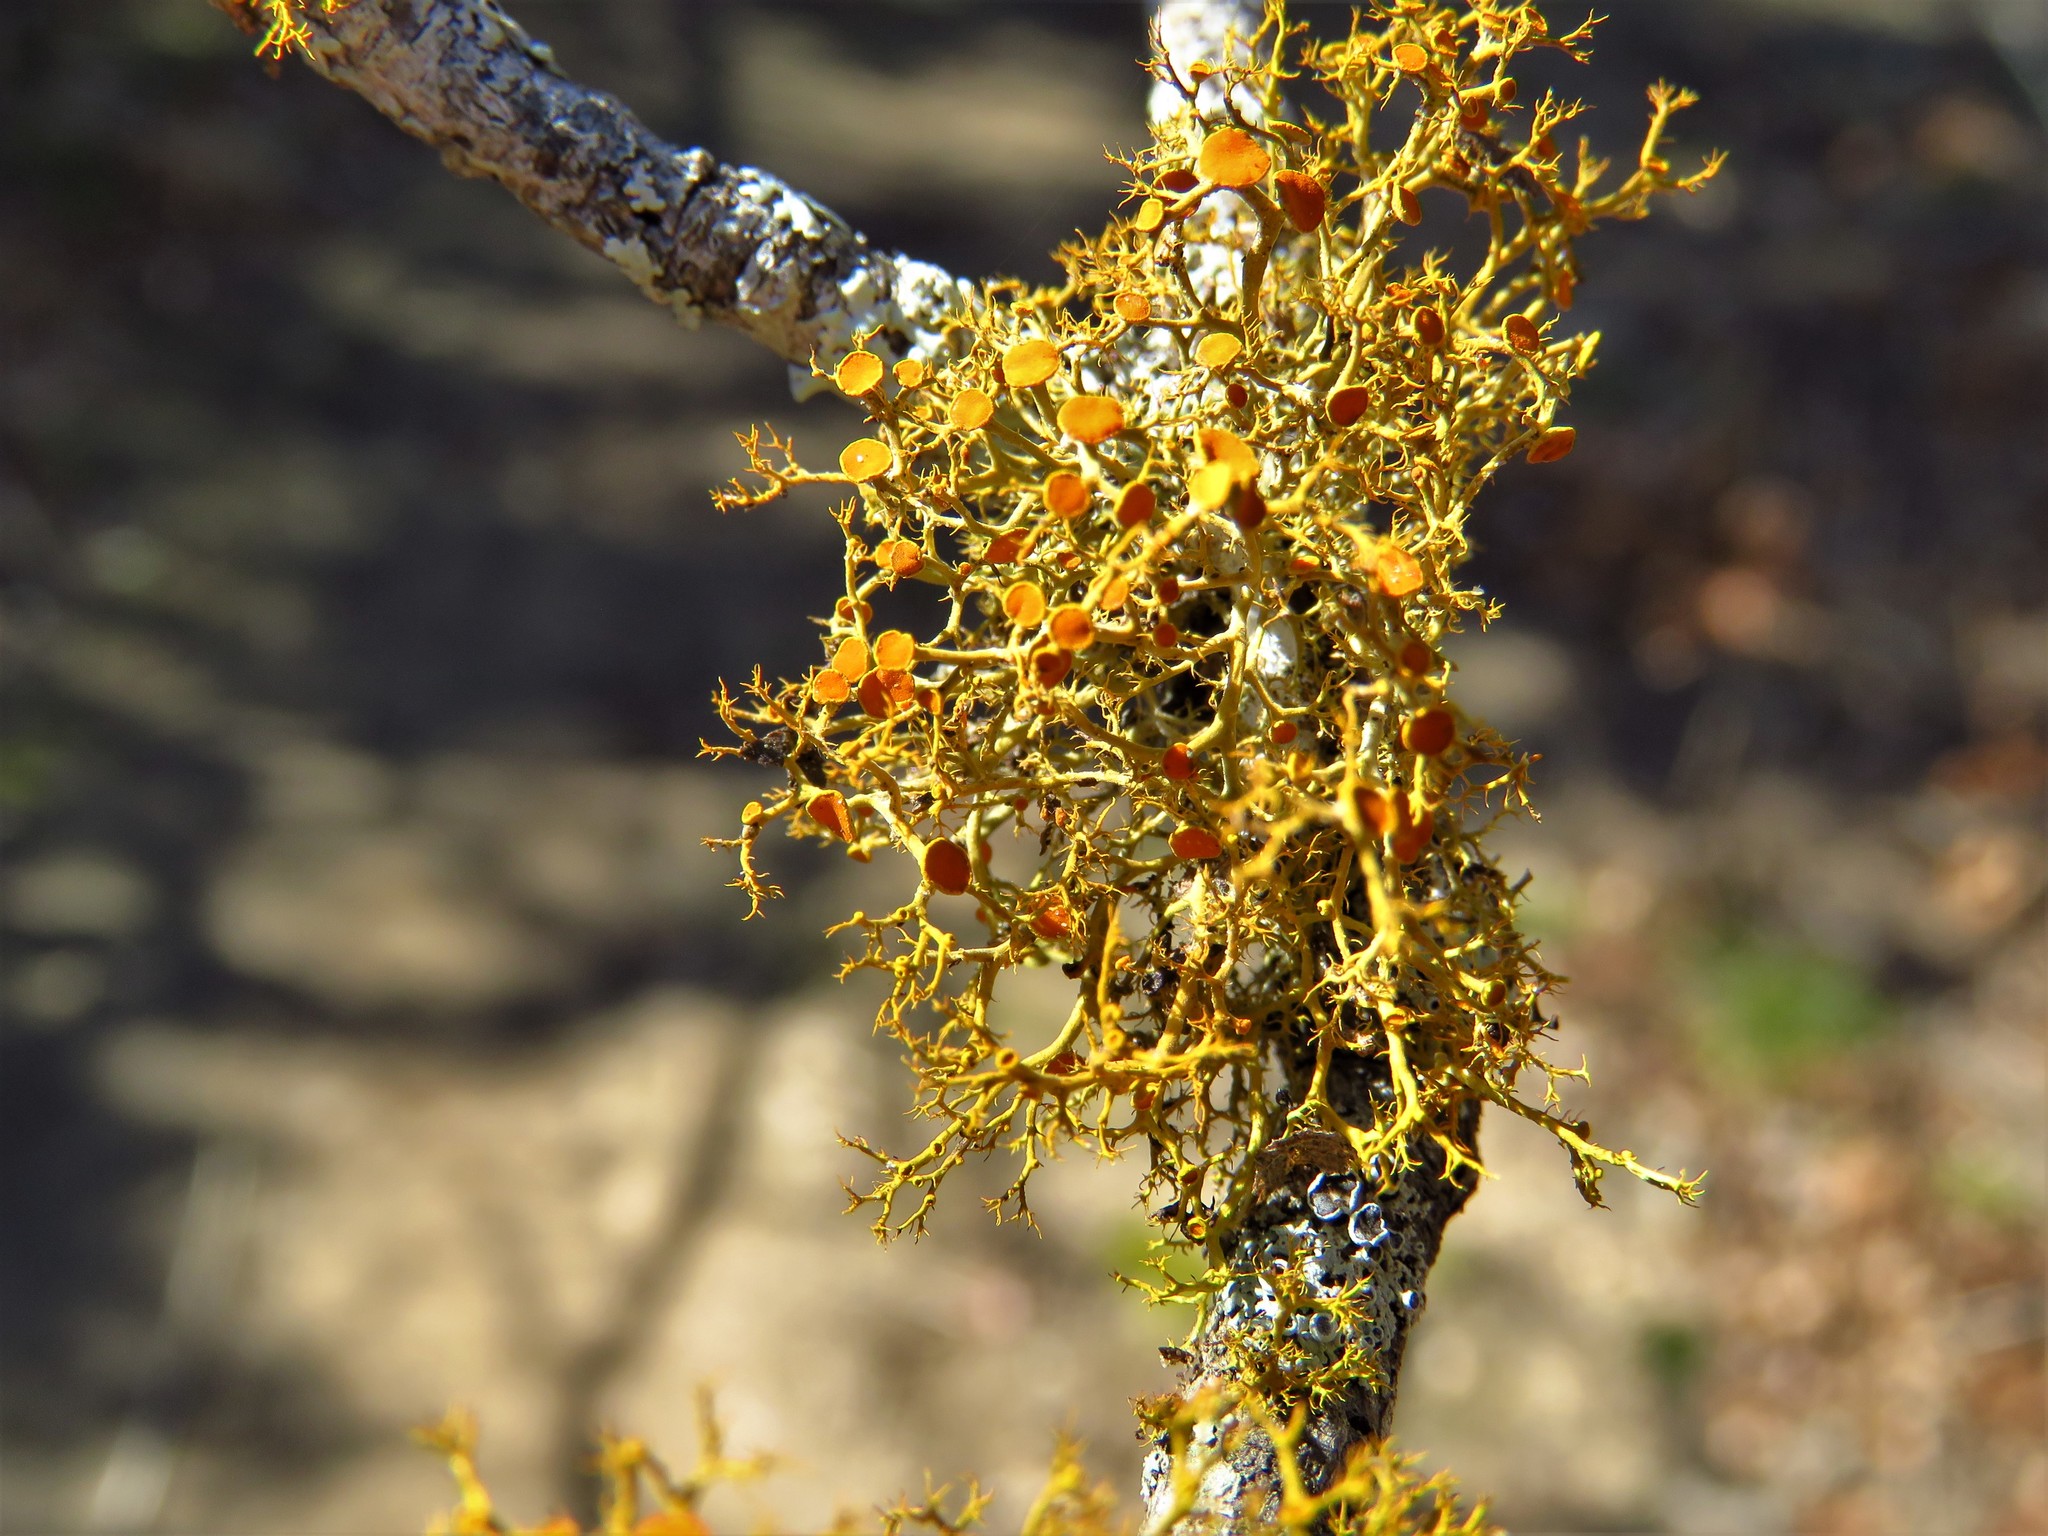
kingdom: Fungi
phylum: Ascomycota
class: Lecanoromycetes
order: Teloschistales
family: Teloschistaceae
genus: Teloschistes
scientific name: Teloschistes exilis
